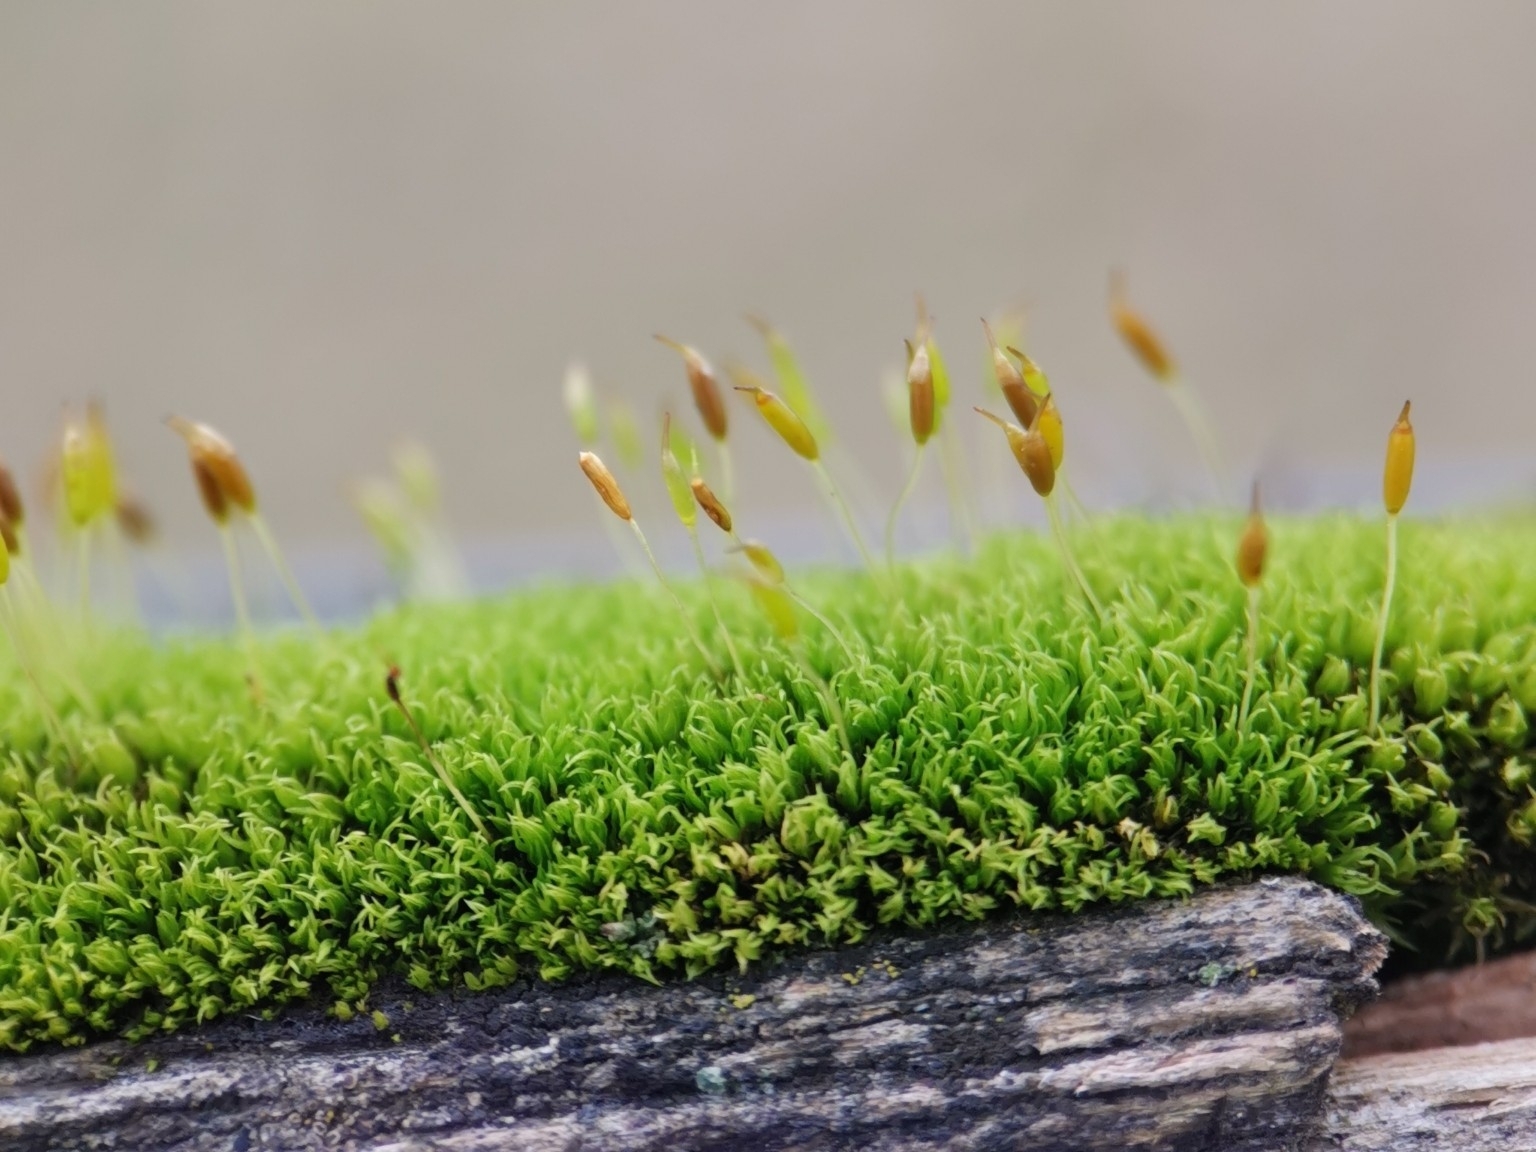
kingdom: Plantae
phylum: Bryophyta
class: Bryopsida
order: Dicranales
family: Rhabdoweisiaceae
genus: Dicranoweisia
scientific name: Dicranoweisia cirrata
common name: Common pincushion
